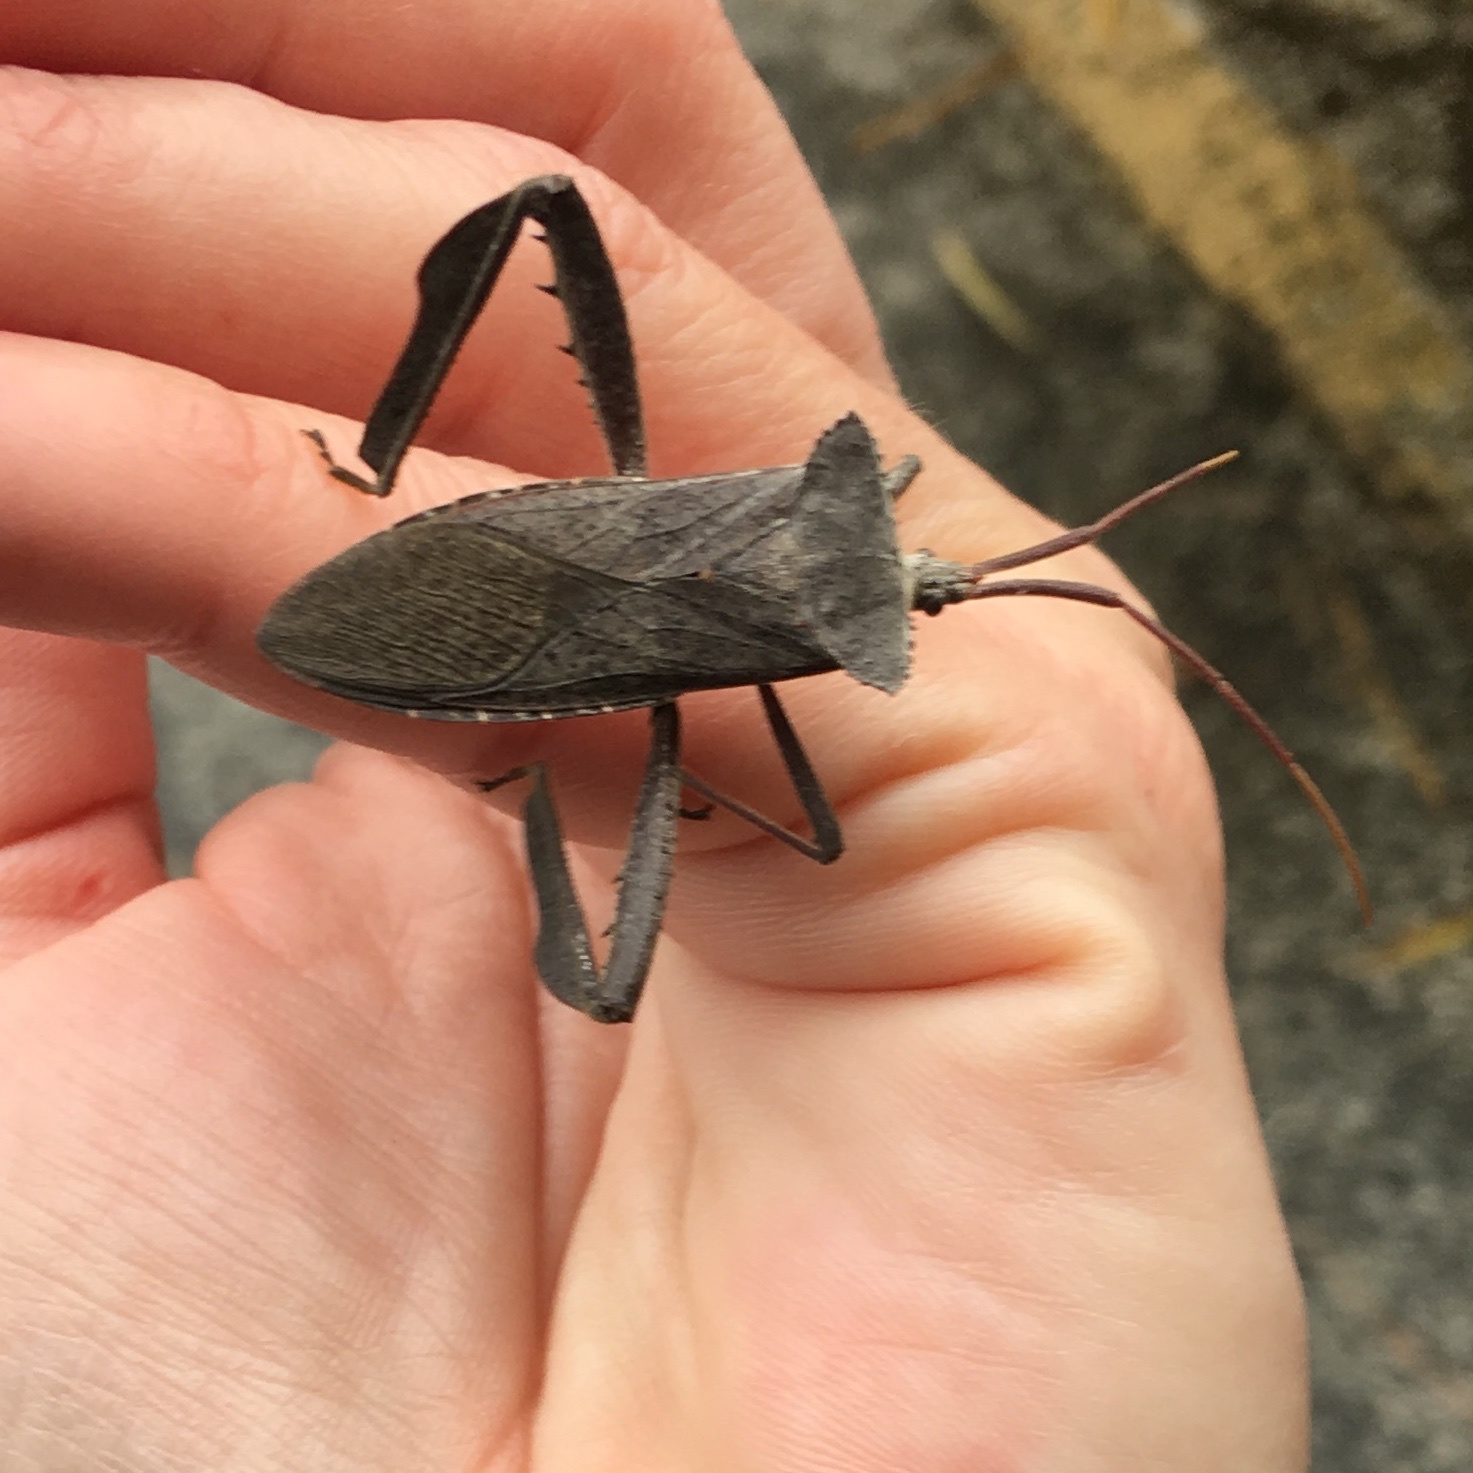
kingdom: Animalia
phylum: Arthropoda
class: Insecta
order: Hemiptera
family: Coreidae
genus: Acanthocephala
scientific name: Acanthocephala declivis
